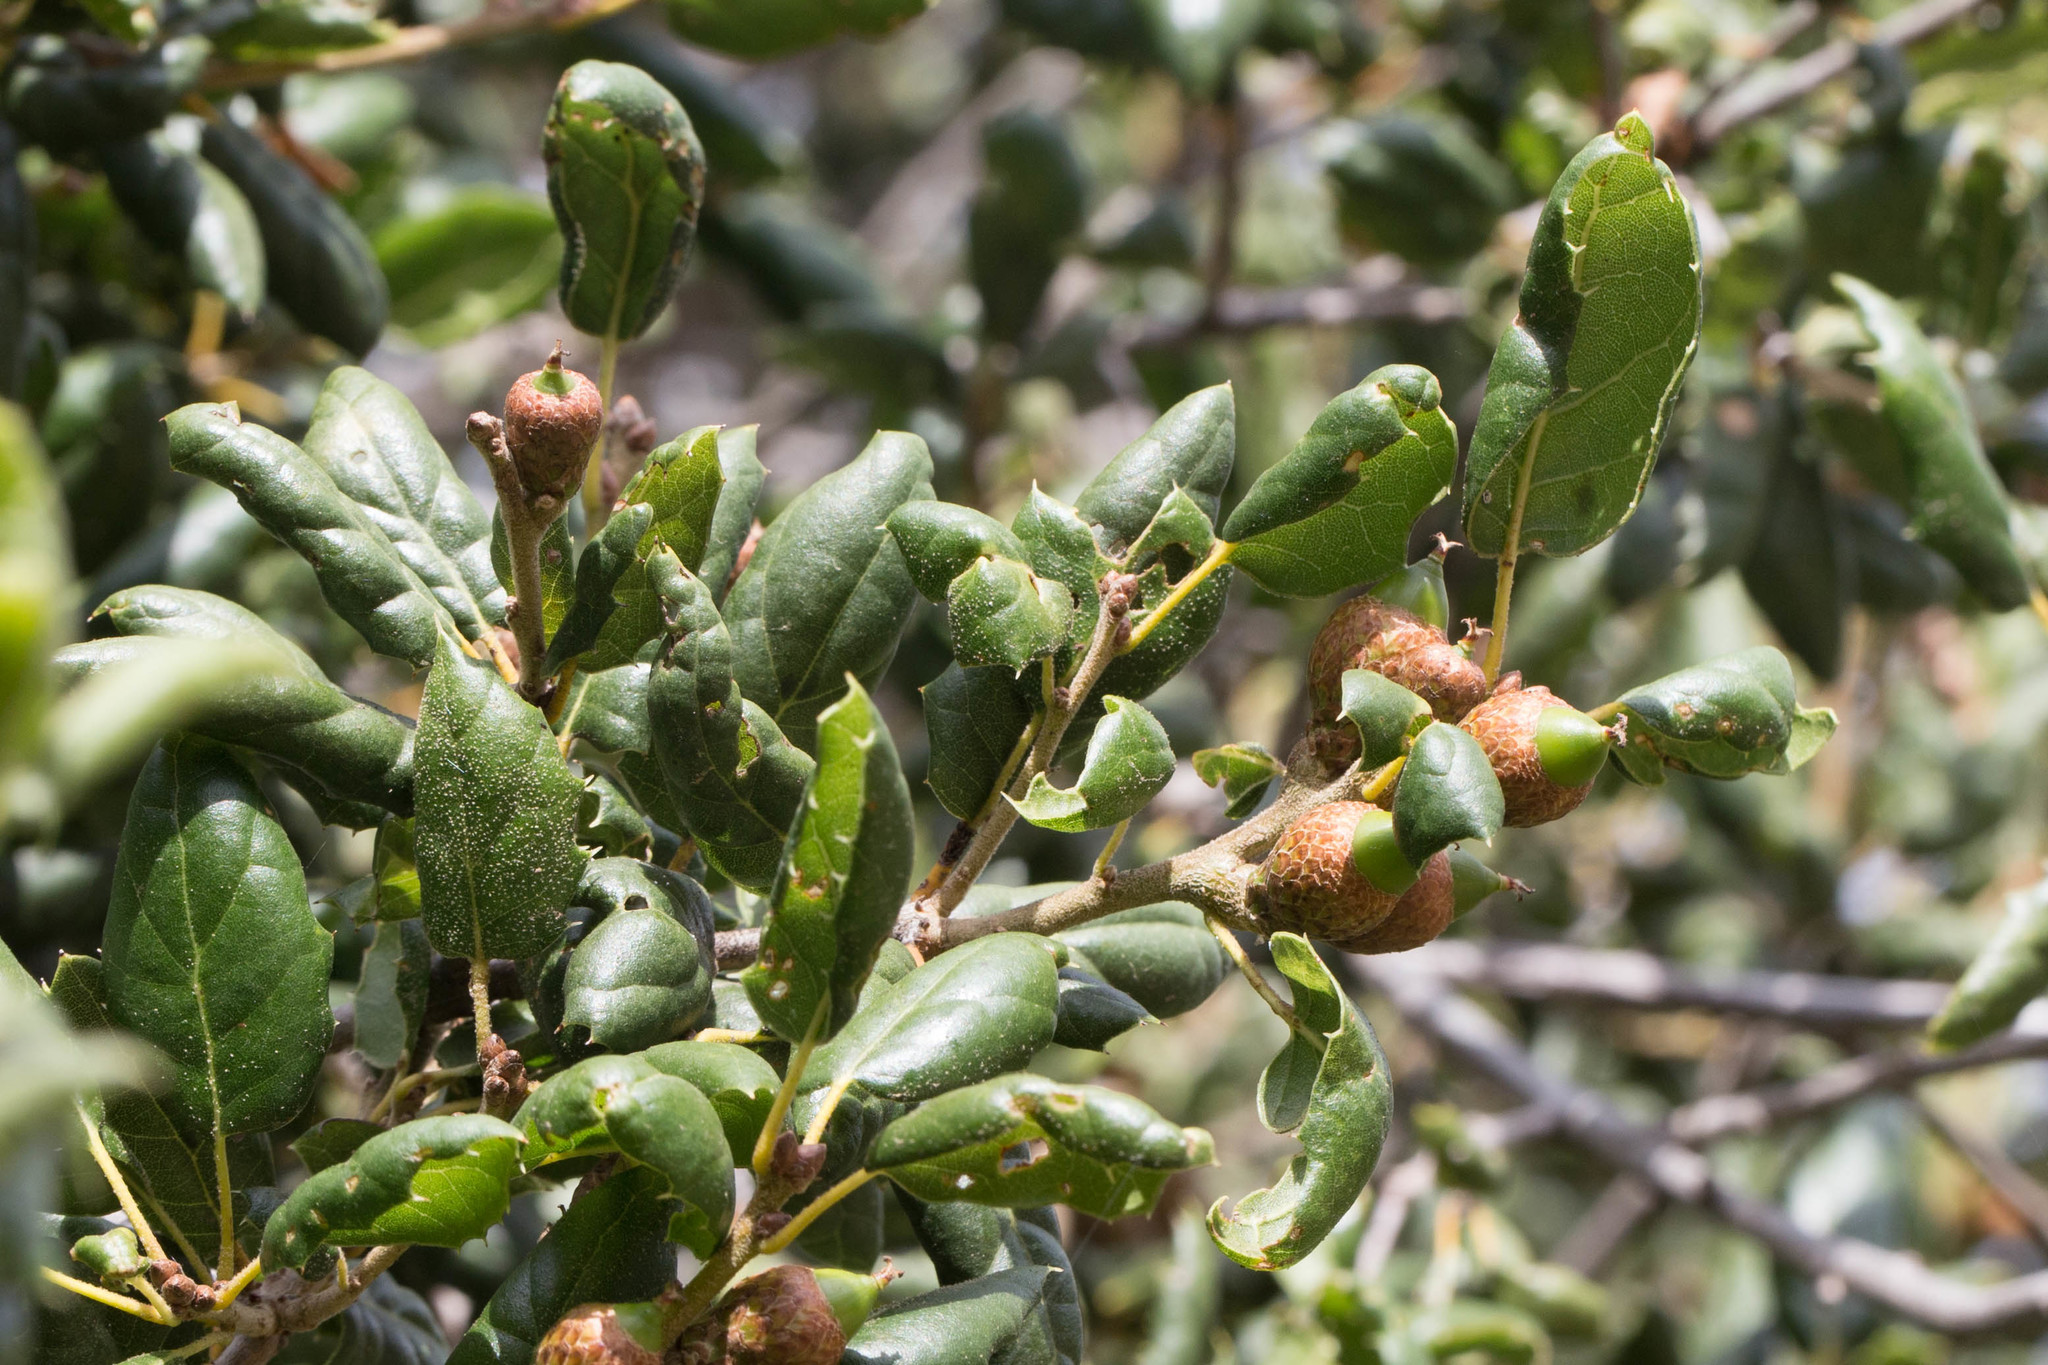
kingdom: Plantae
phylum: Tracheophyta
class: Magnoliopsida
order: Fagales
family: Fagaceae
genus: Quercus
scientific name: Quercus agrifolia
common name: California live oak
